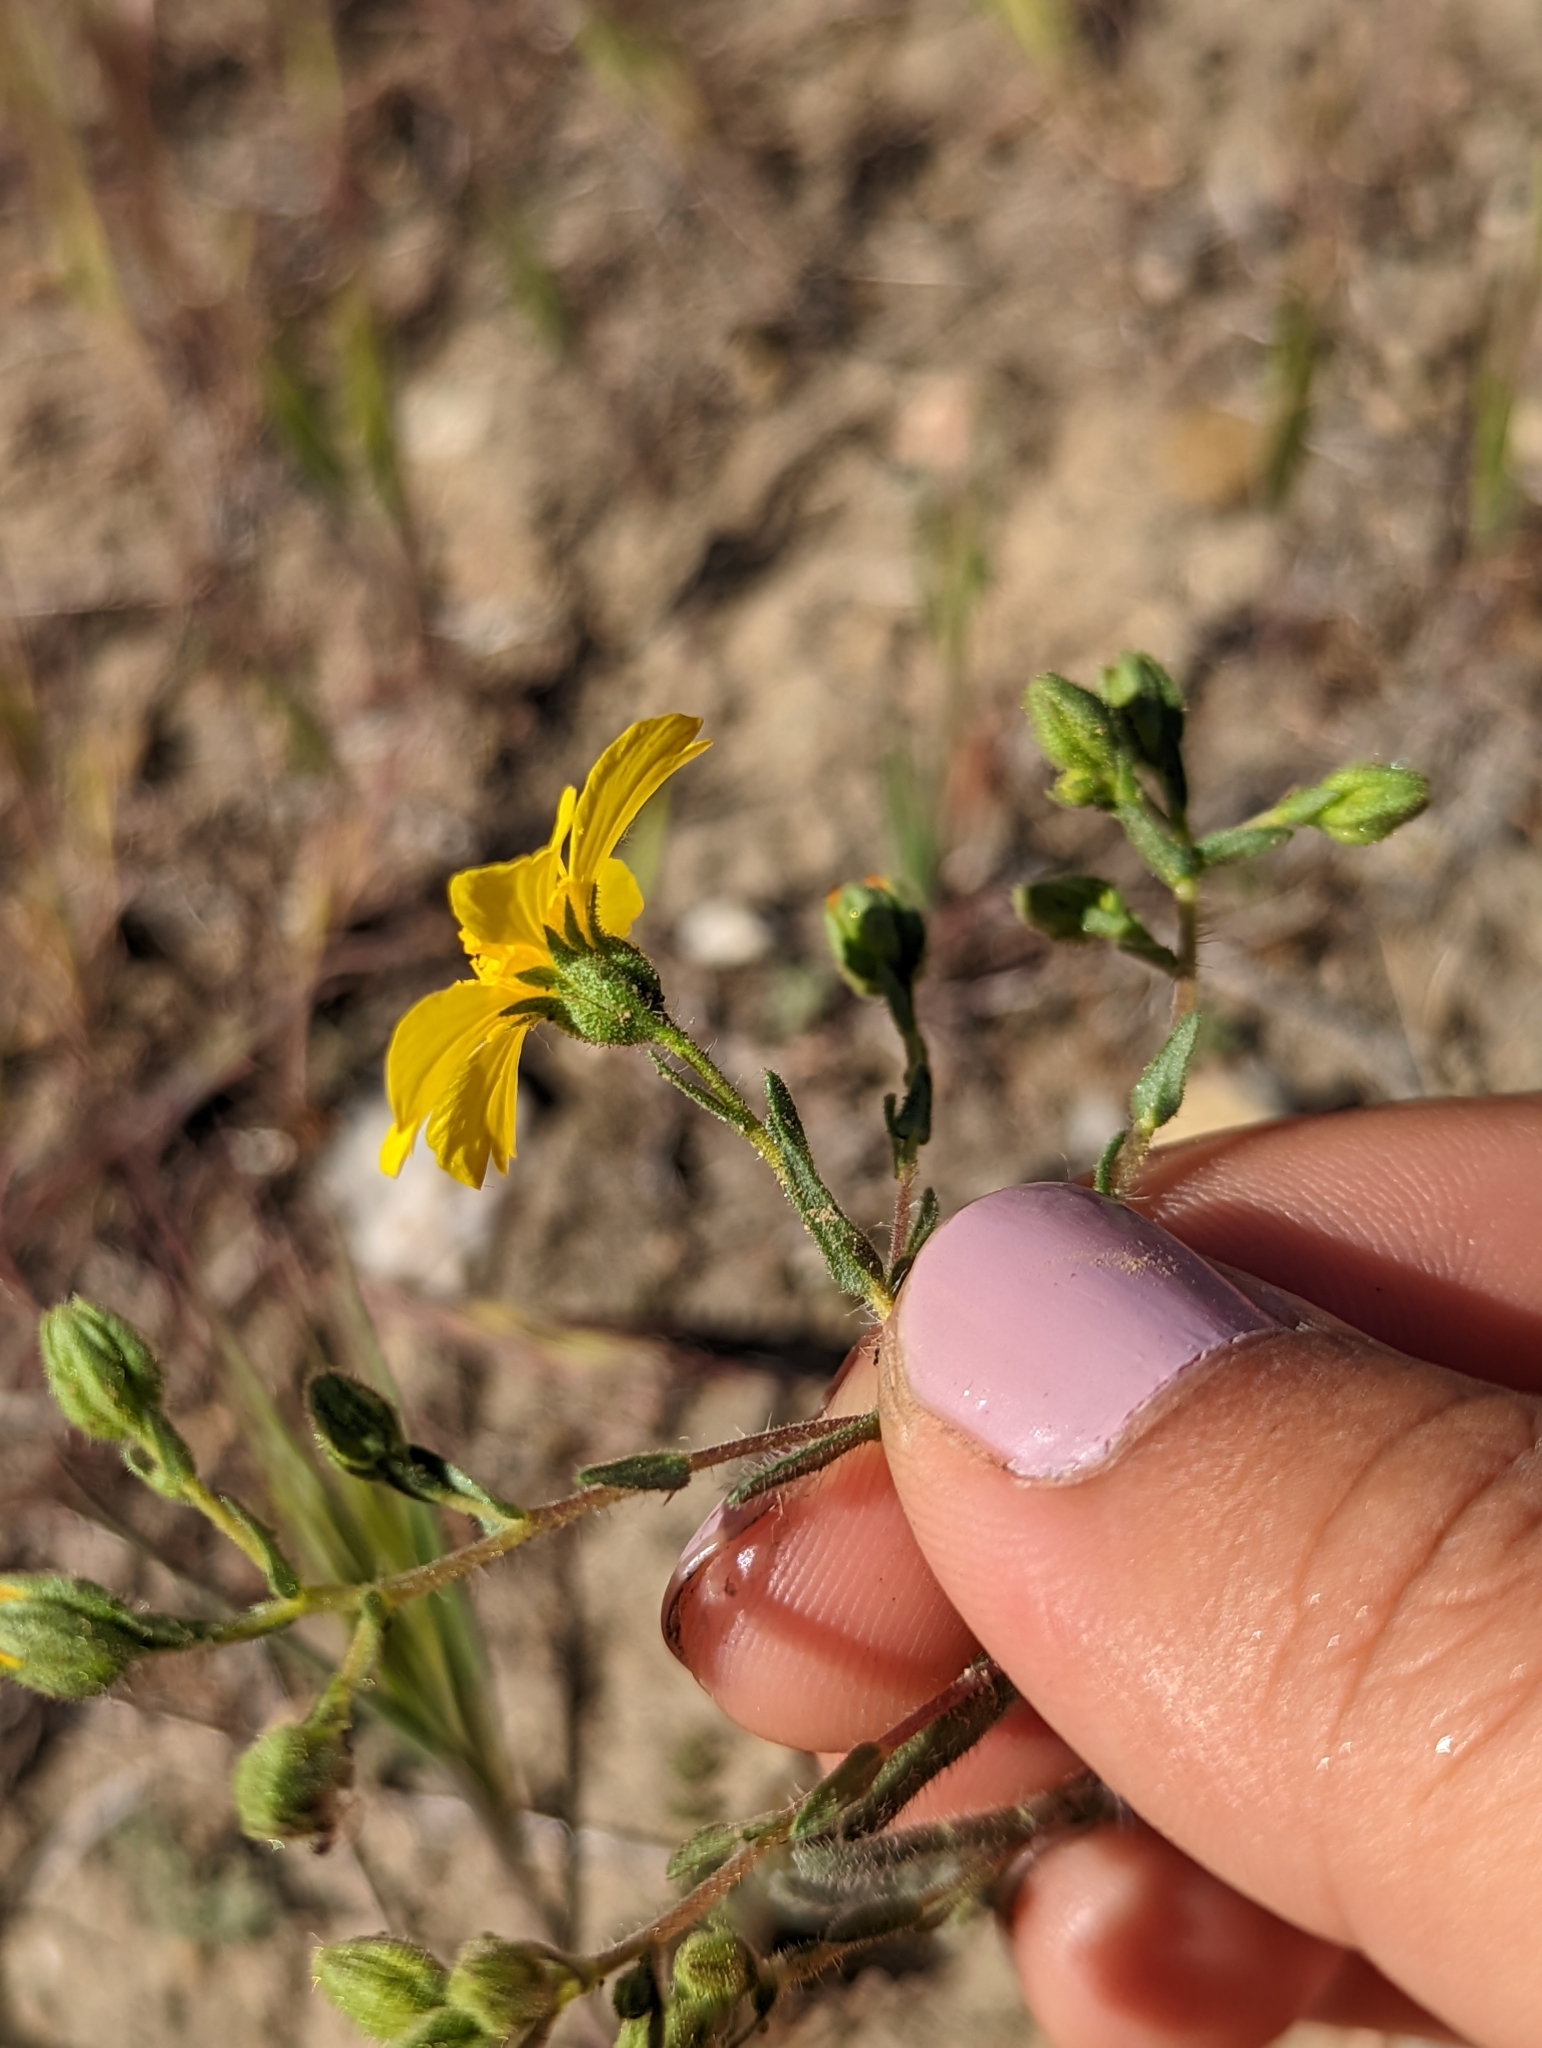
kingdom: Plantae
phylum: Tracheophyta
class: Magnoliopsida
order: Asterales
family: Asteraceae
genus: Deinandra
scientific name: Deinandra kelloggii
